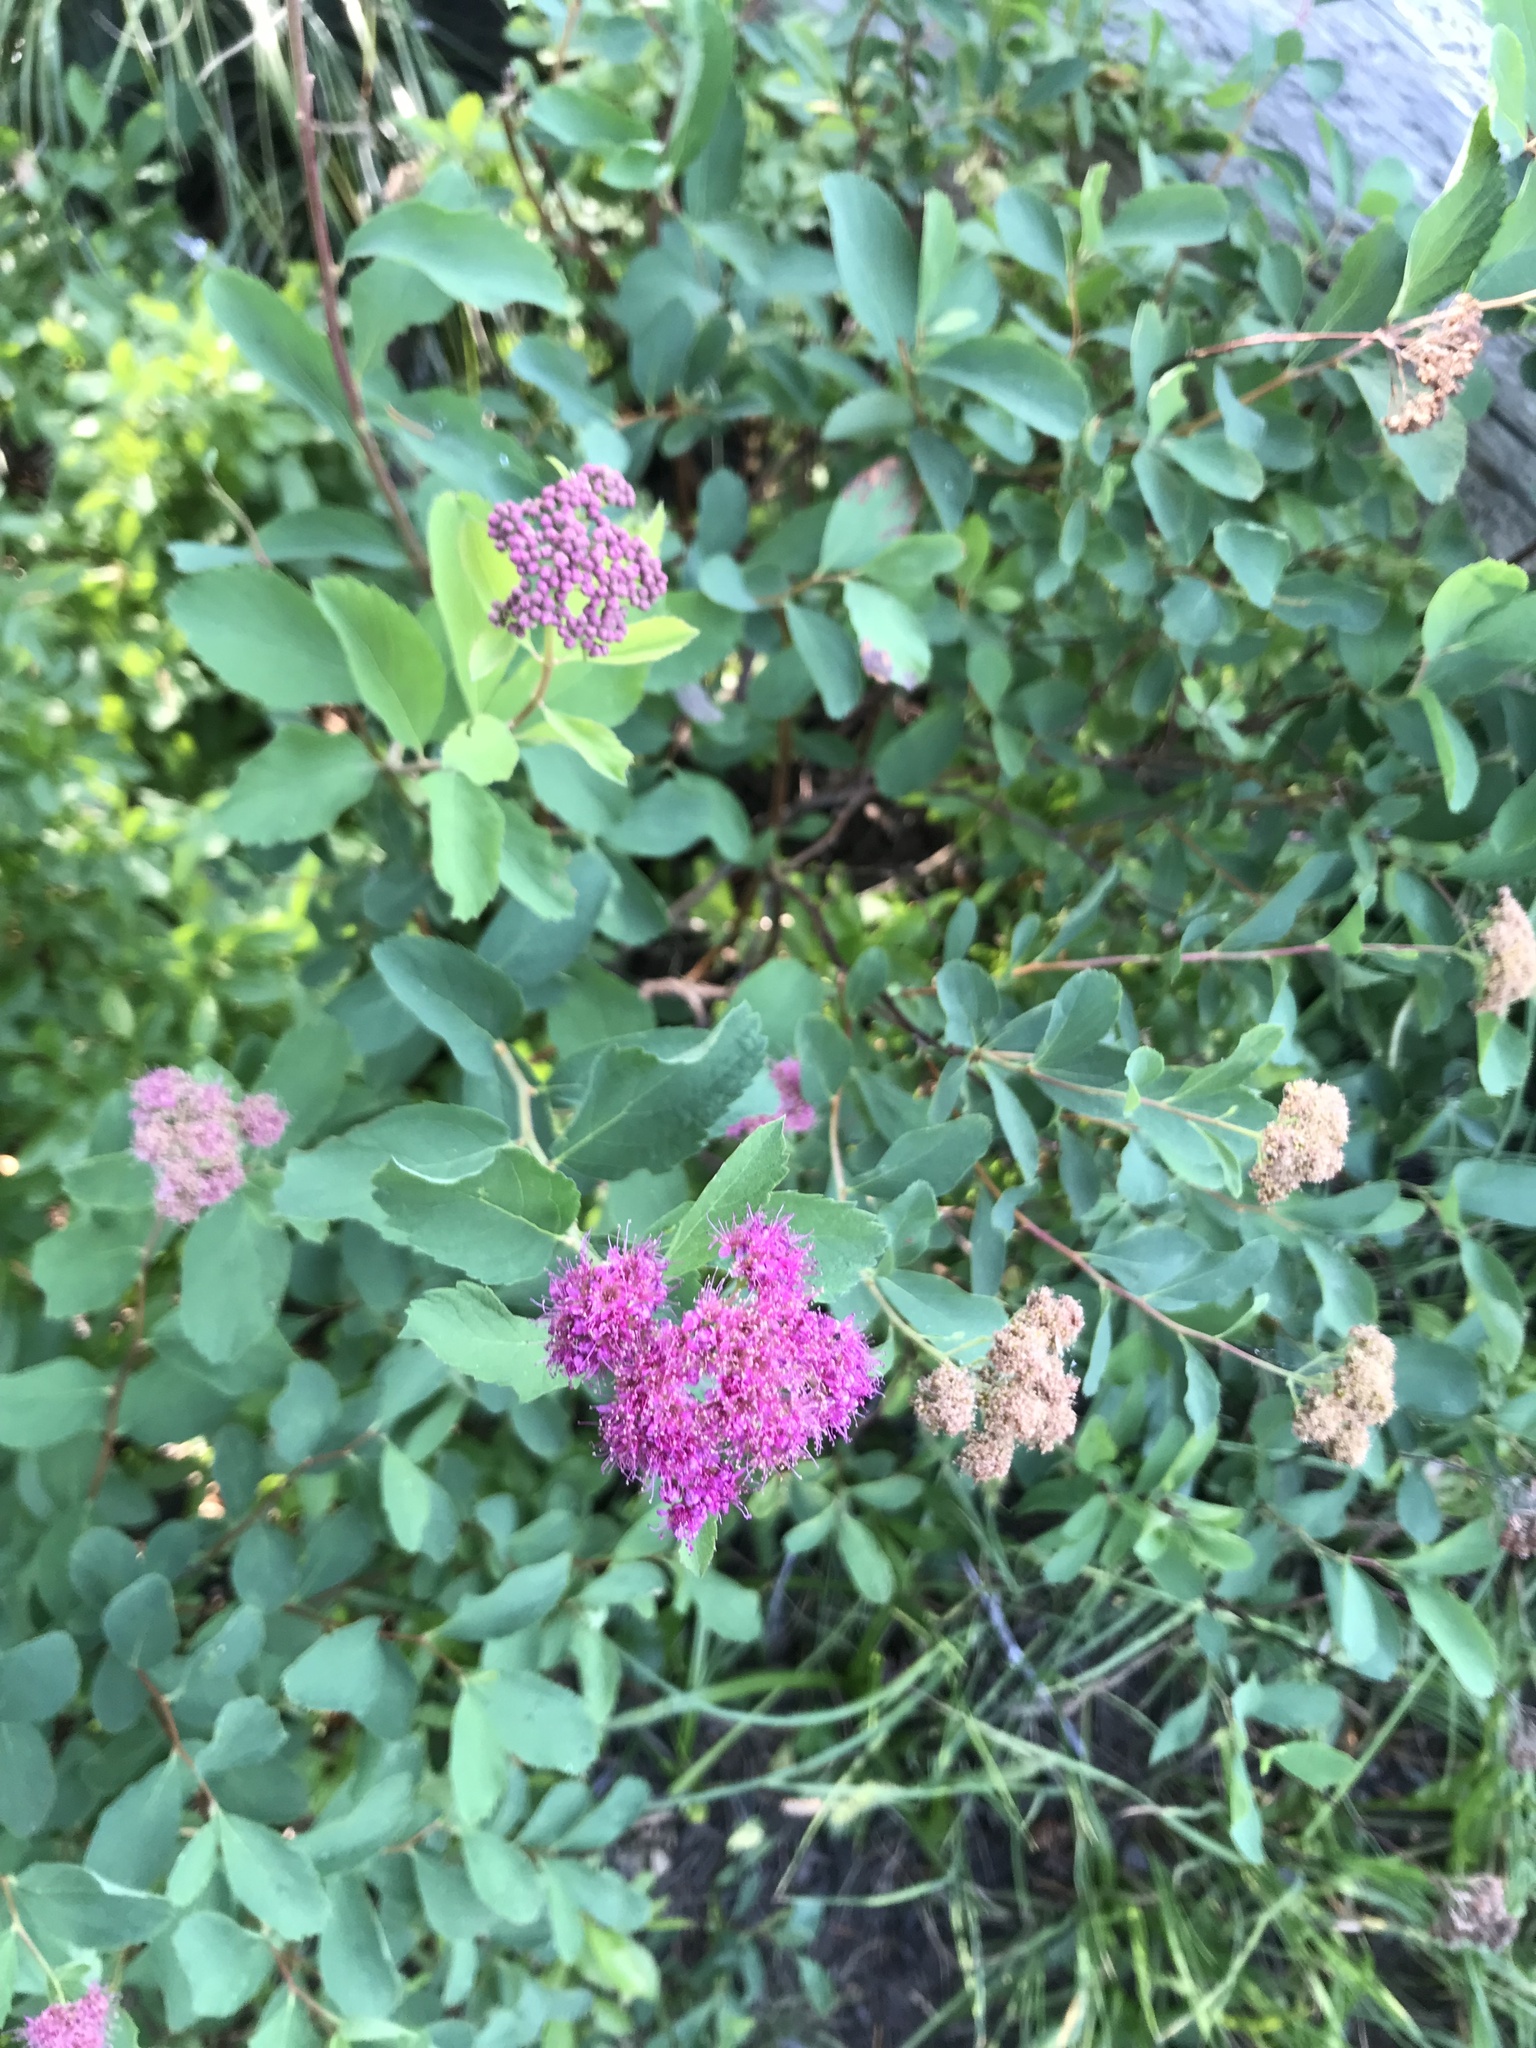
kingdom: Plantae
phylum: Tracheophyta
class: Magnoliopsida
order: Rosales
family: Rosaceae
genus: Spiraea
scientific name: Spiraea splendens
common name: Subalpine meadowsweet
